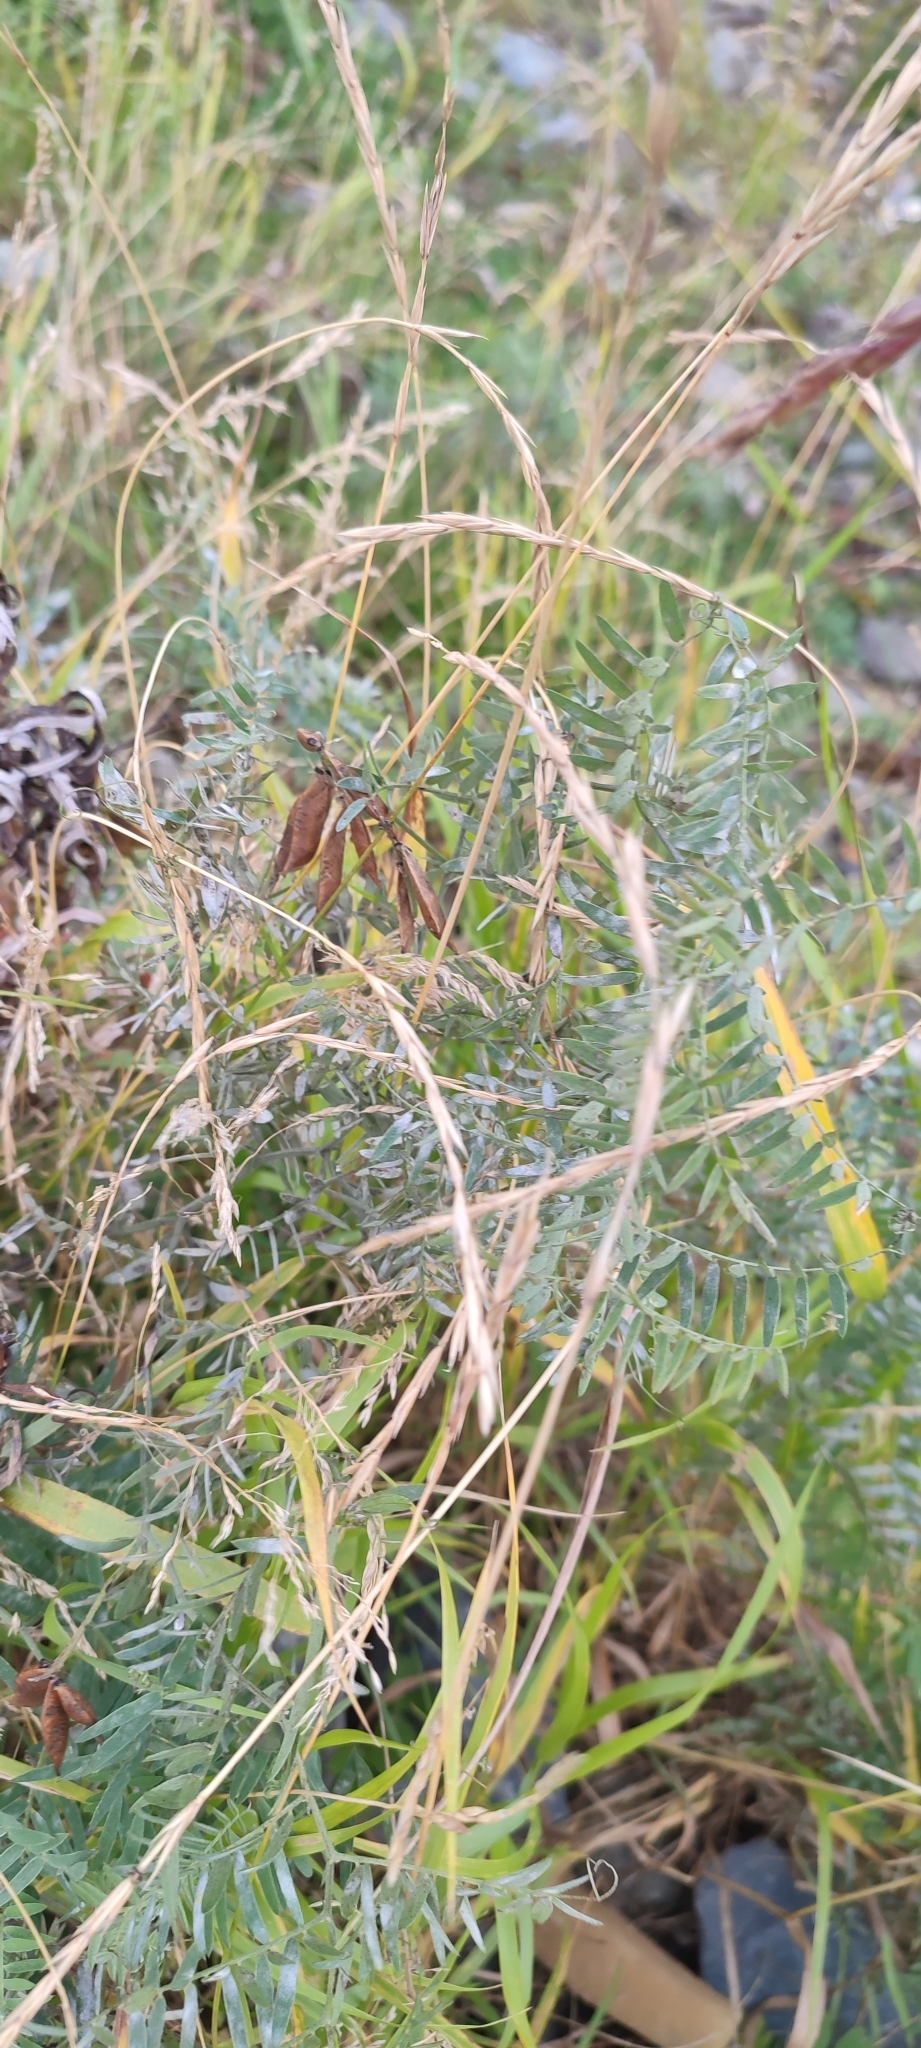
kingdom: Plantae
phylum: Tracheophyta
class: Magnoliopsida
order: Fabales
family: Fabaceae
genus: Vicia
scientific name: Vicia cracca
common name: Bird vetch
